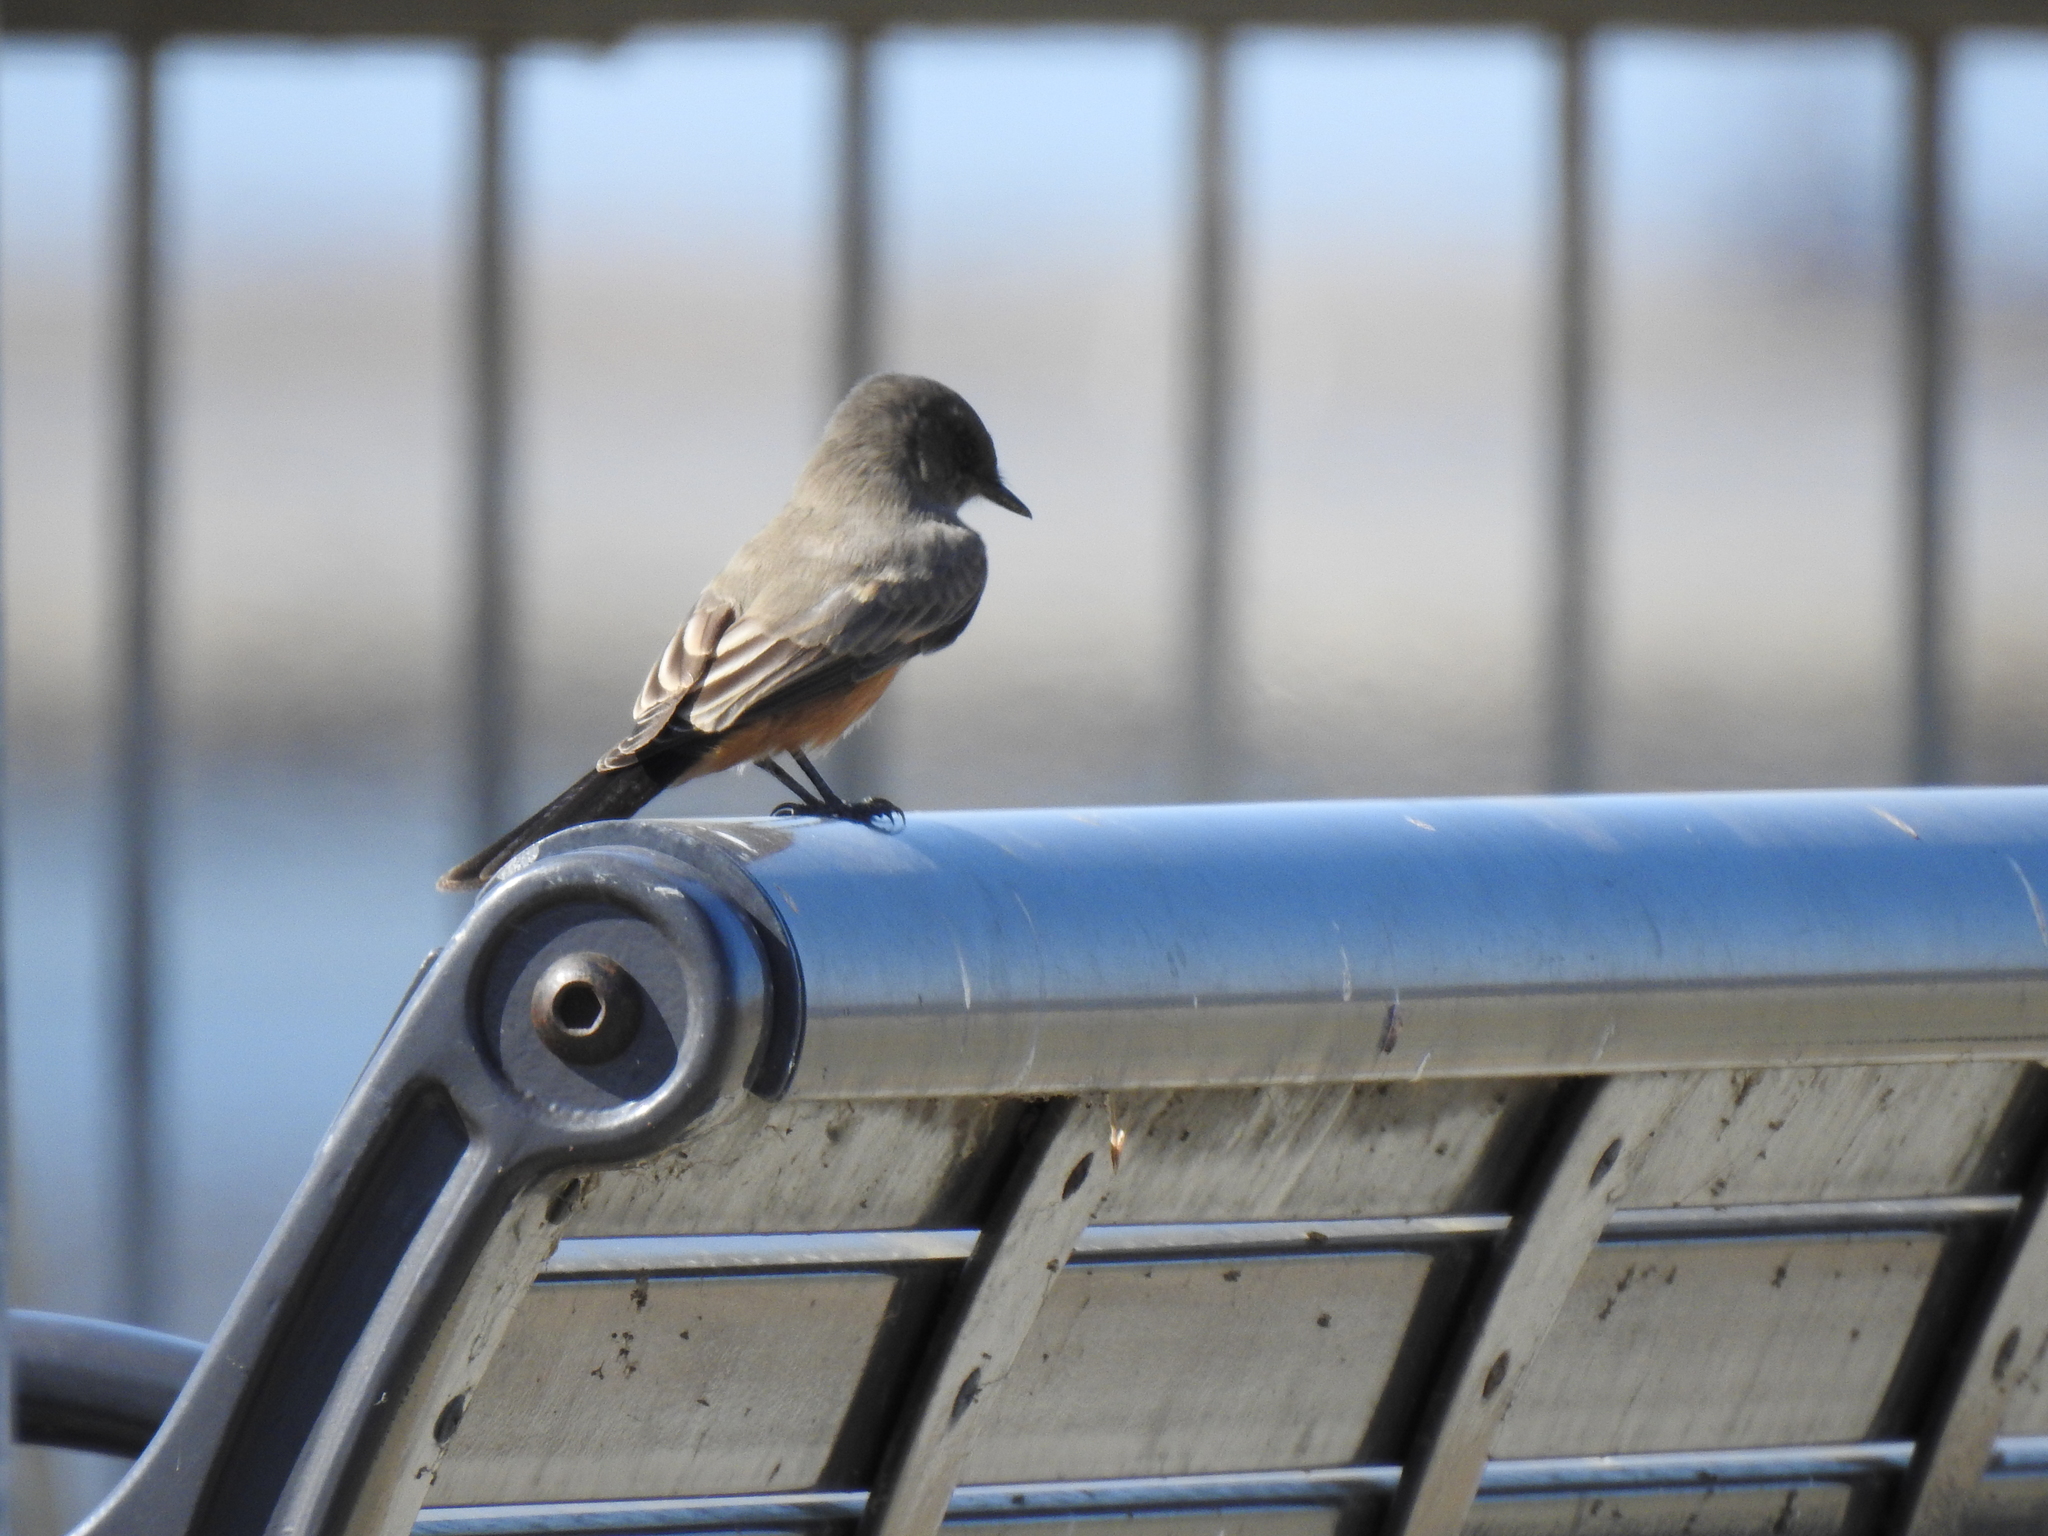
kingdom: Animalia
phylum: Chordata
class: Aves
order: Passeriformes
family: Tyrannidae
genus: Sayornis
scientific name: Sayornis saya
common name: Say's phoebe
